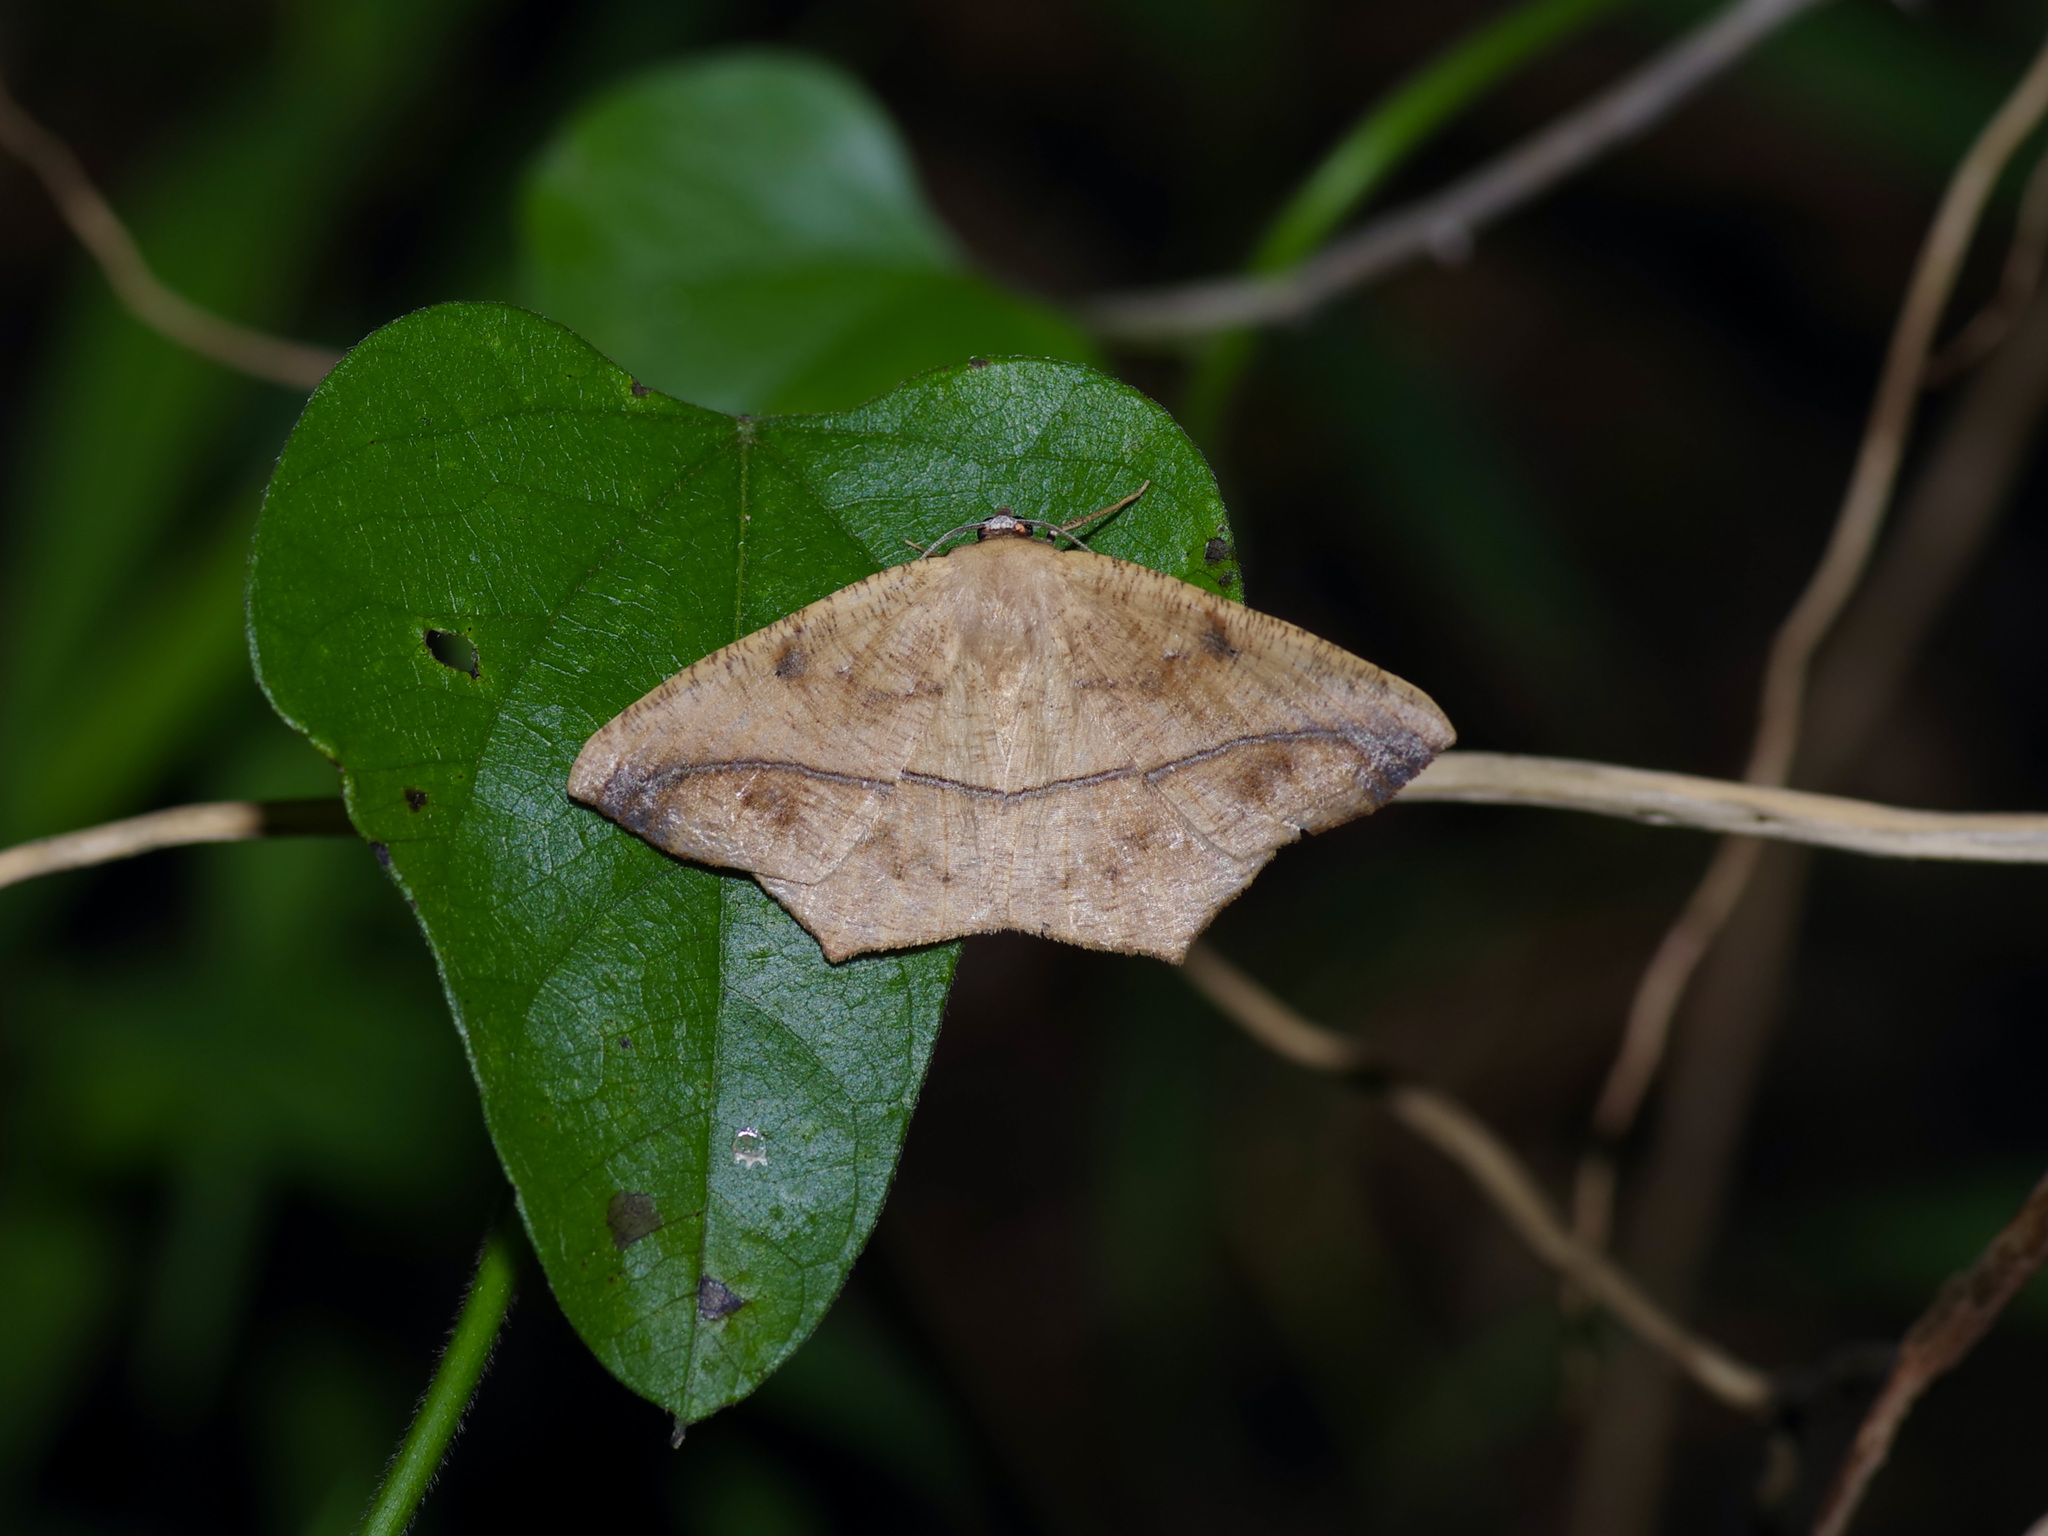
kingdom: Animalia
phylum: Arthropoda
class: Insecta
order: Lepidoptera
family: Geometridae
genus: Prochoerodes
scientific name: Prochoerodes lineola
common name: Large maple spanworm
